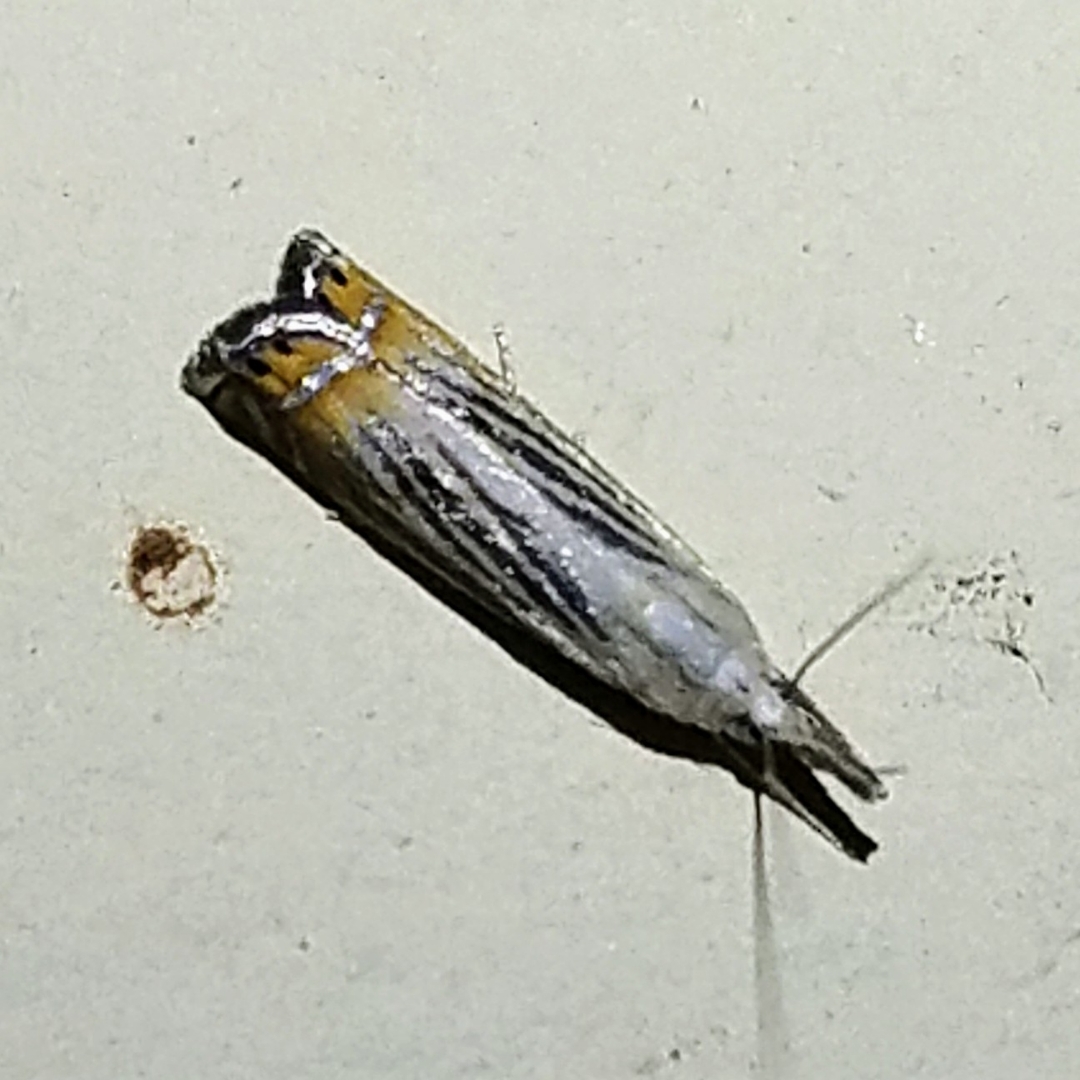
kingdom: Animalia
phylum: Arthropoda
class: Insecta
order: Lepidoptera
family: Crambidae
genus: Chrysoteuchia
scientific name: Chrysoteuchia topiarius
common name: Topiary grass-veneer
